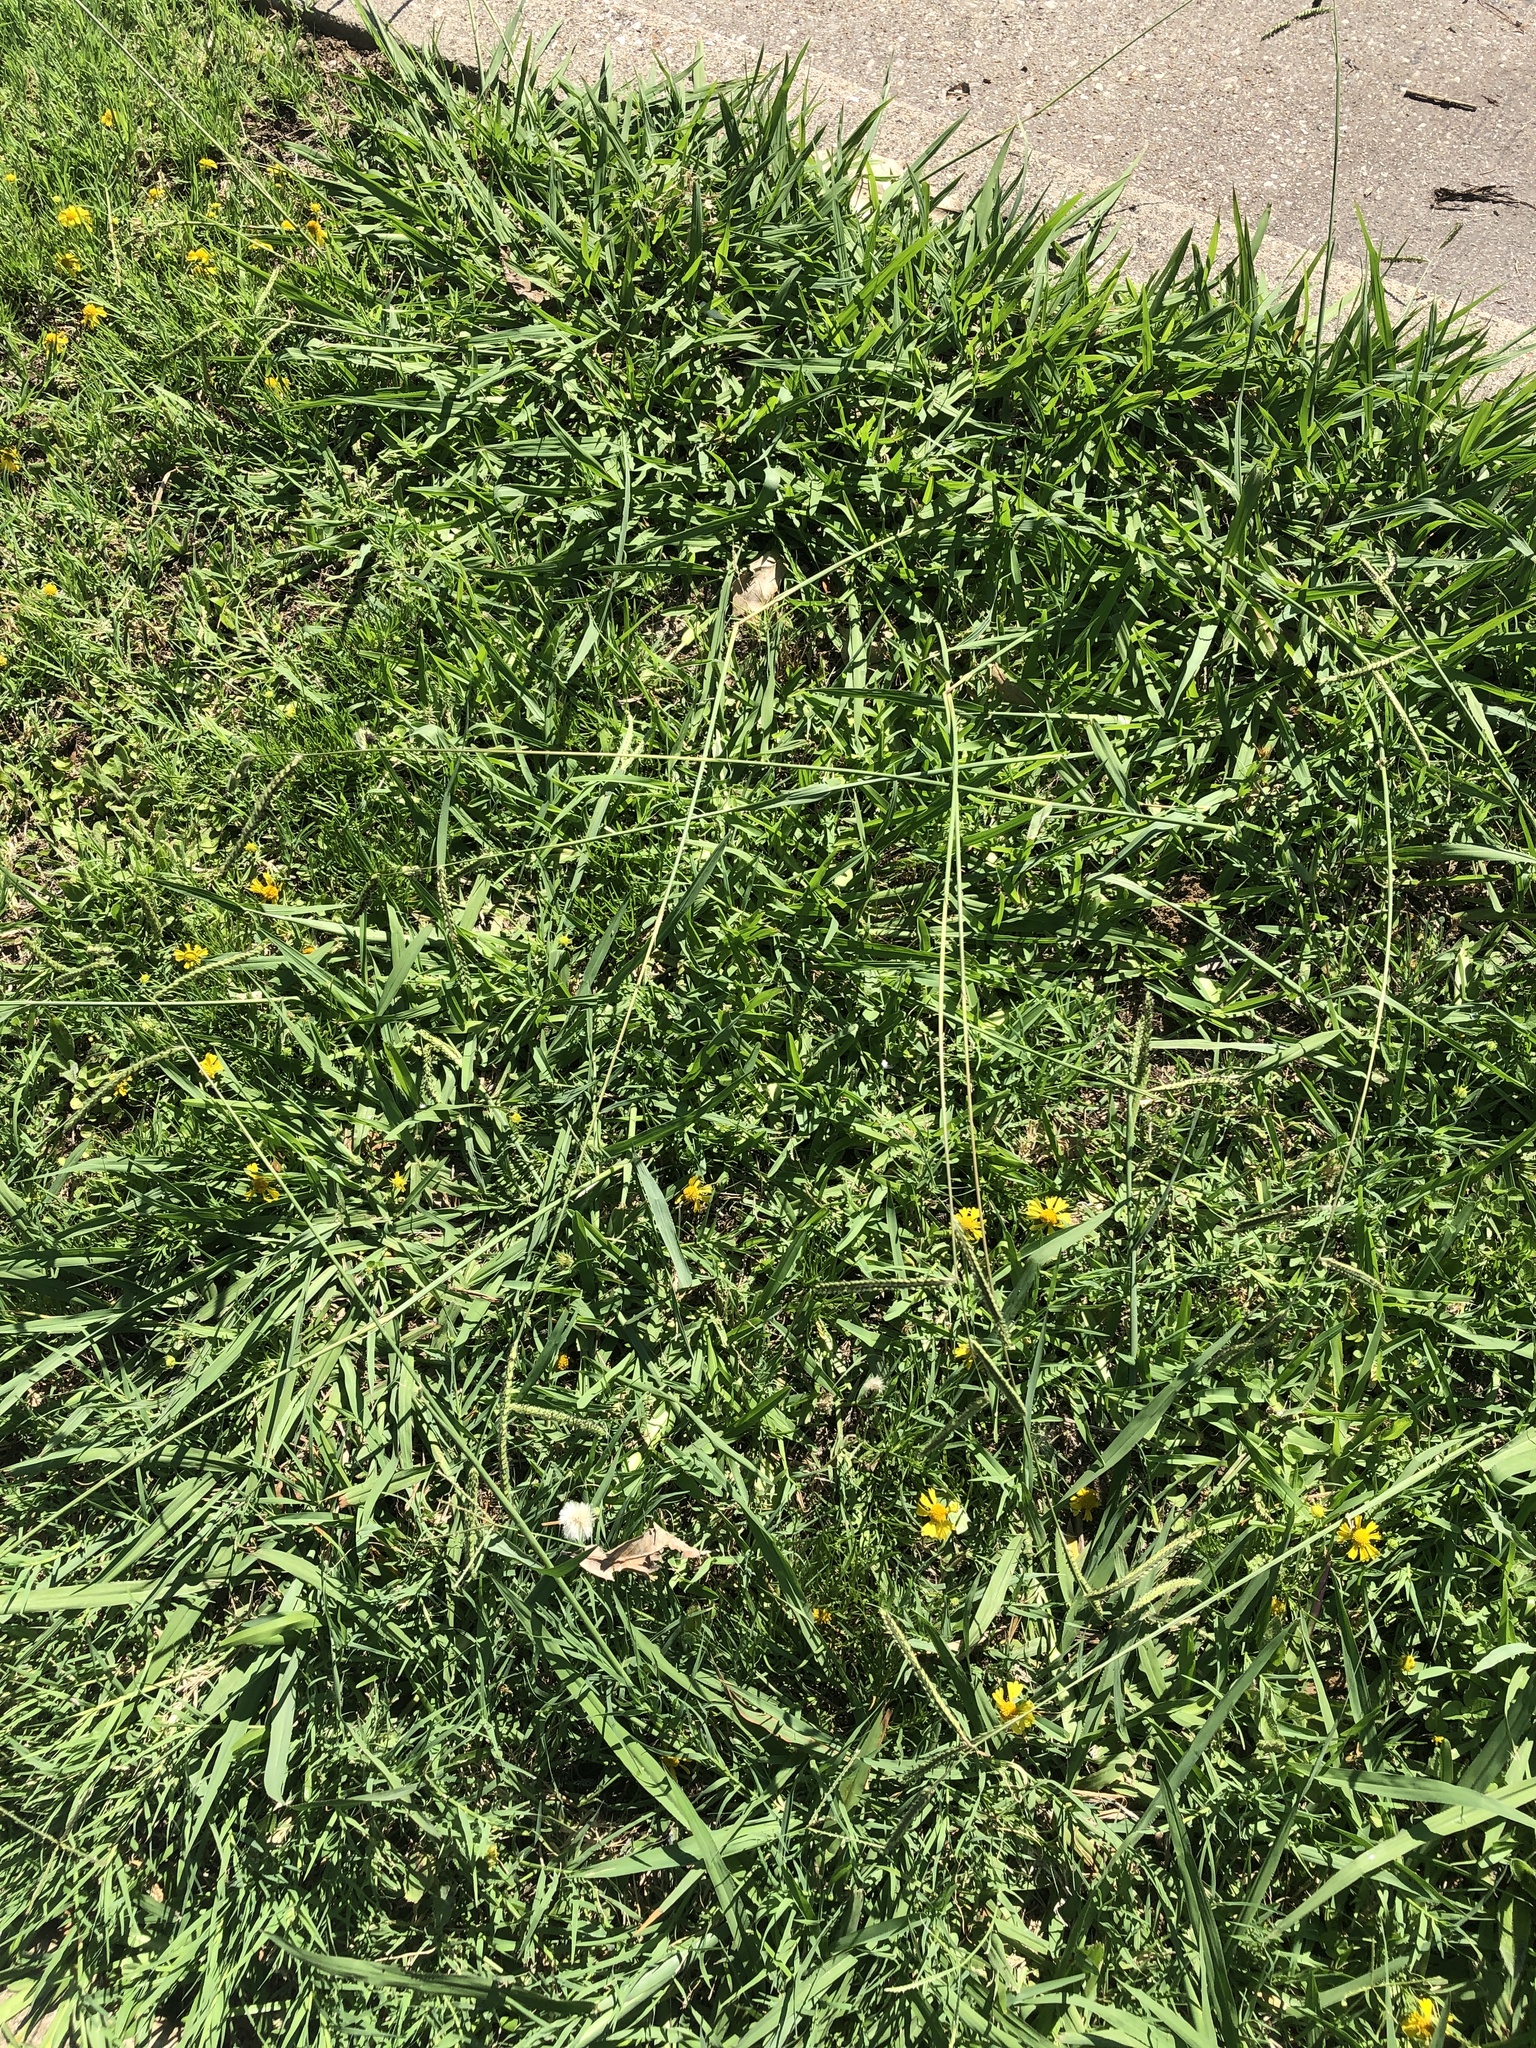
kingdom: Plantae
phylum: Tracheophyta
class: Liliopsida
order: Poales
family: Poaceae
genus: Paspalum
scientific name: Paspalum dilatatum
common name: Dallisgrass
